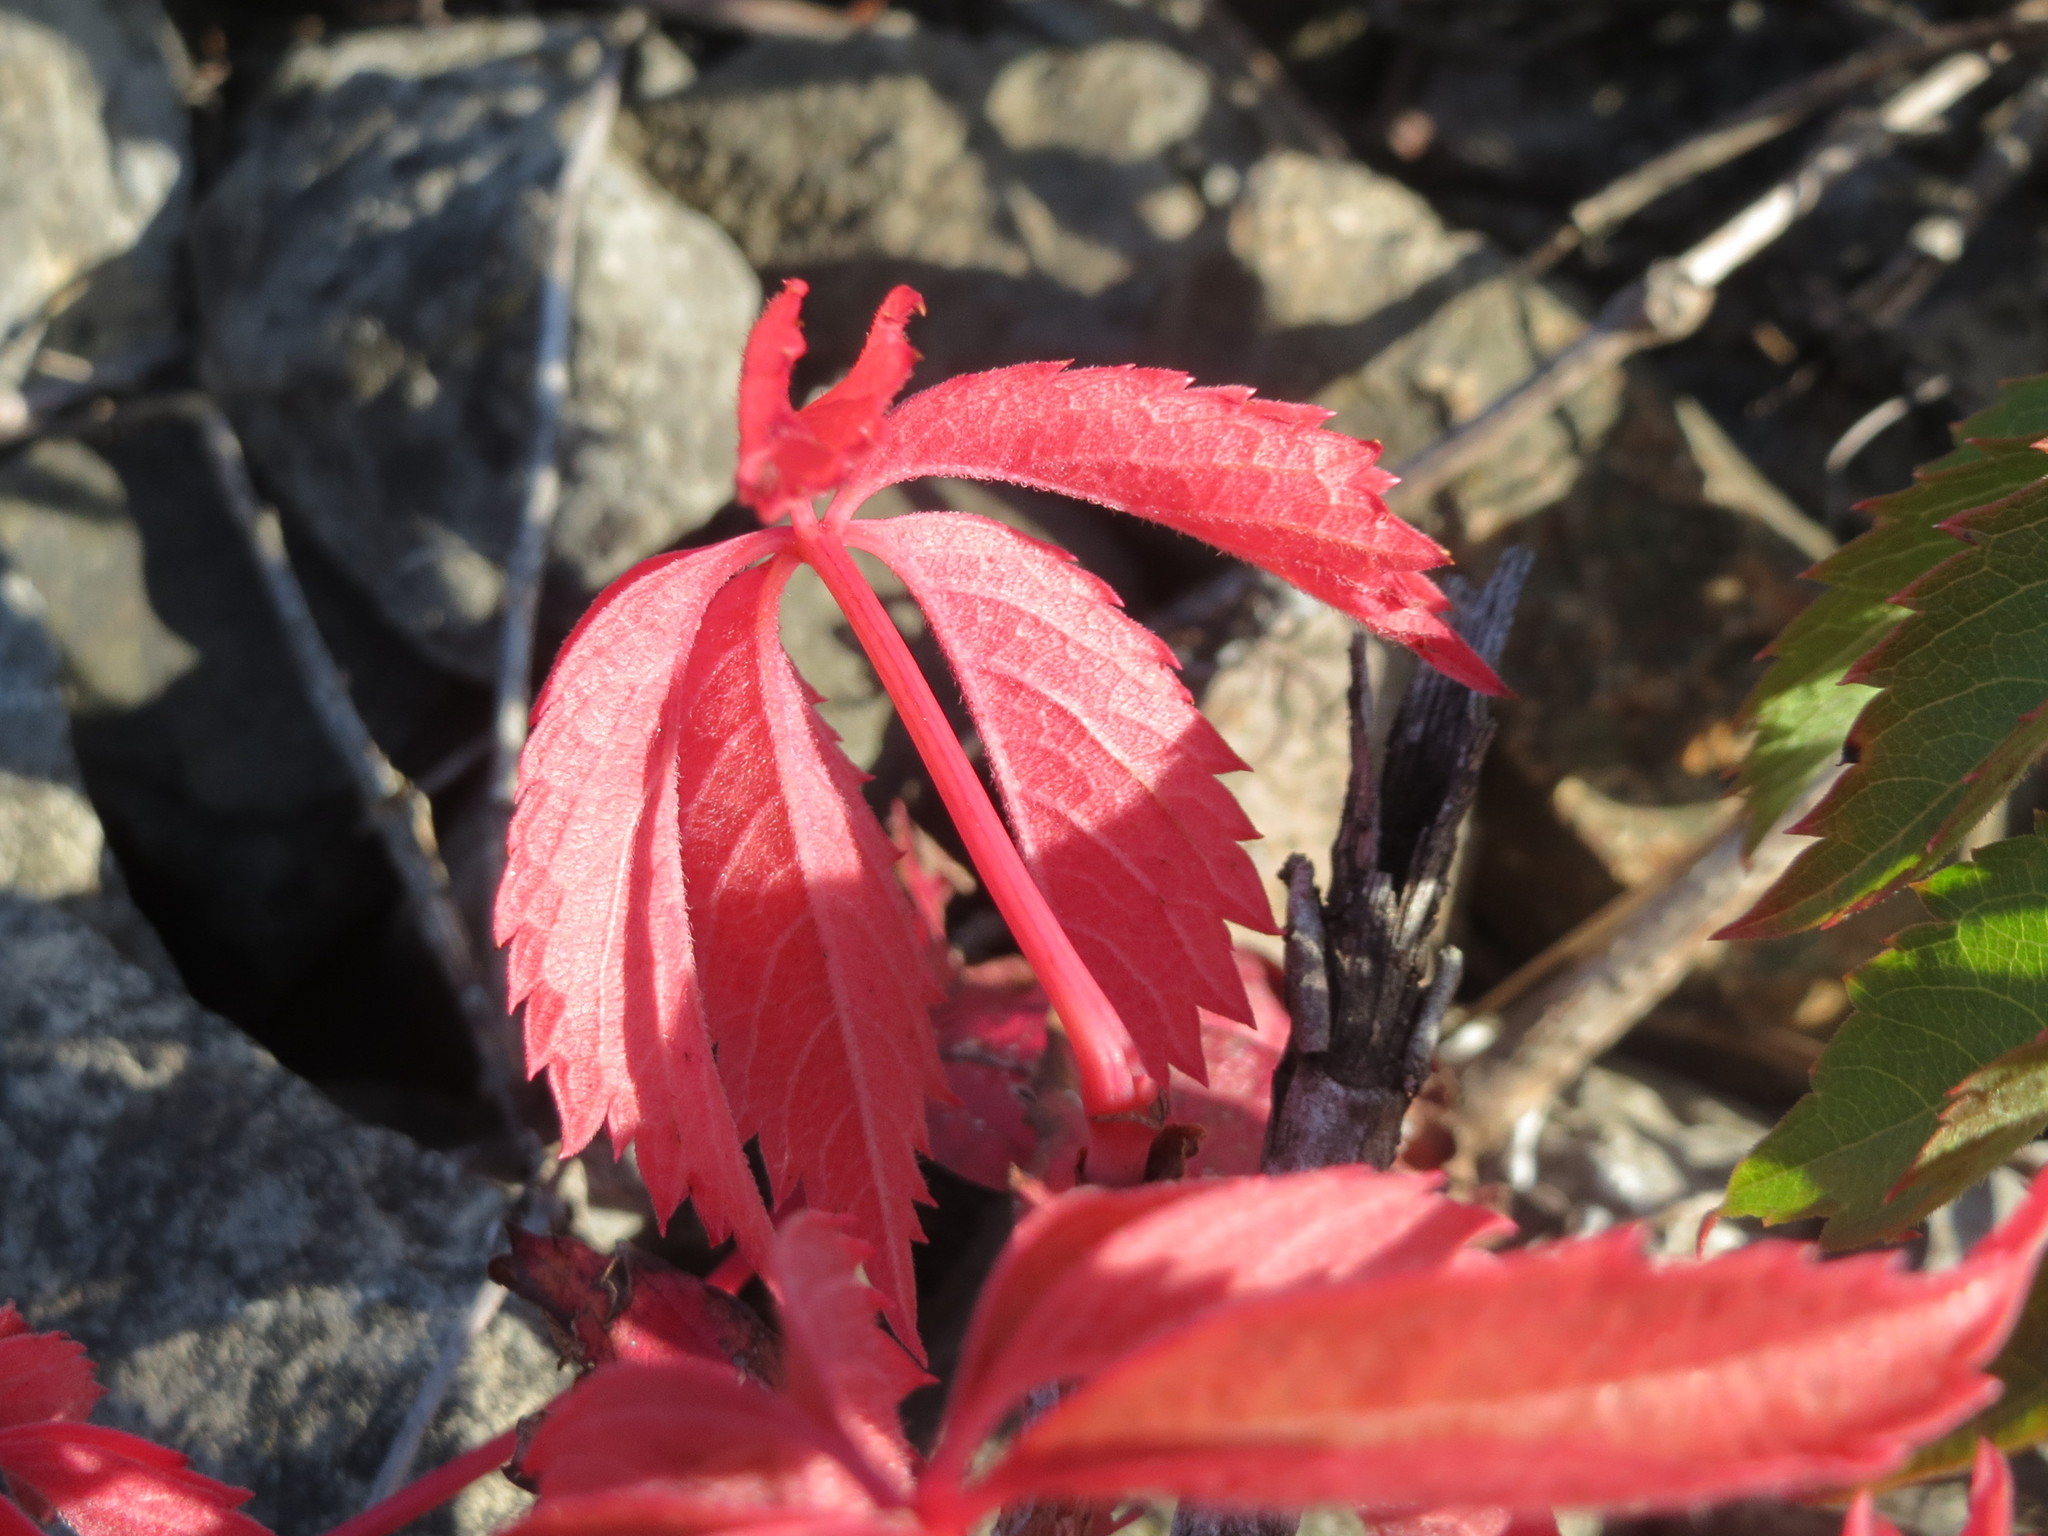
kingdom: Plantae
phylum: Tracheophyta
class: Magnoliopsida
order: Vitales
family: Vitaceae
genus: Parthenocissus
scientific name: Parthenocissus quinquefolia
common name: Virginia-creeper
